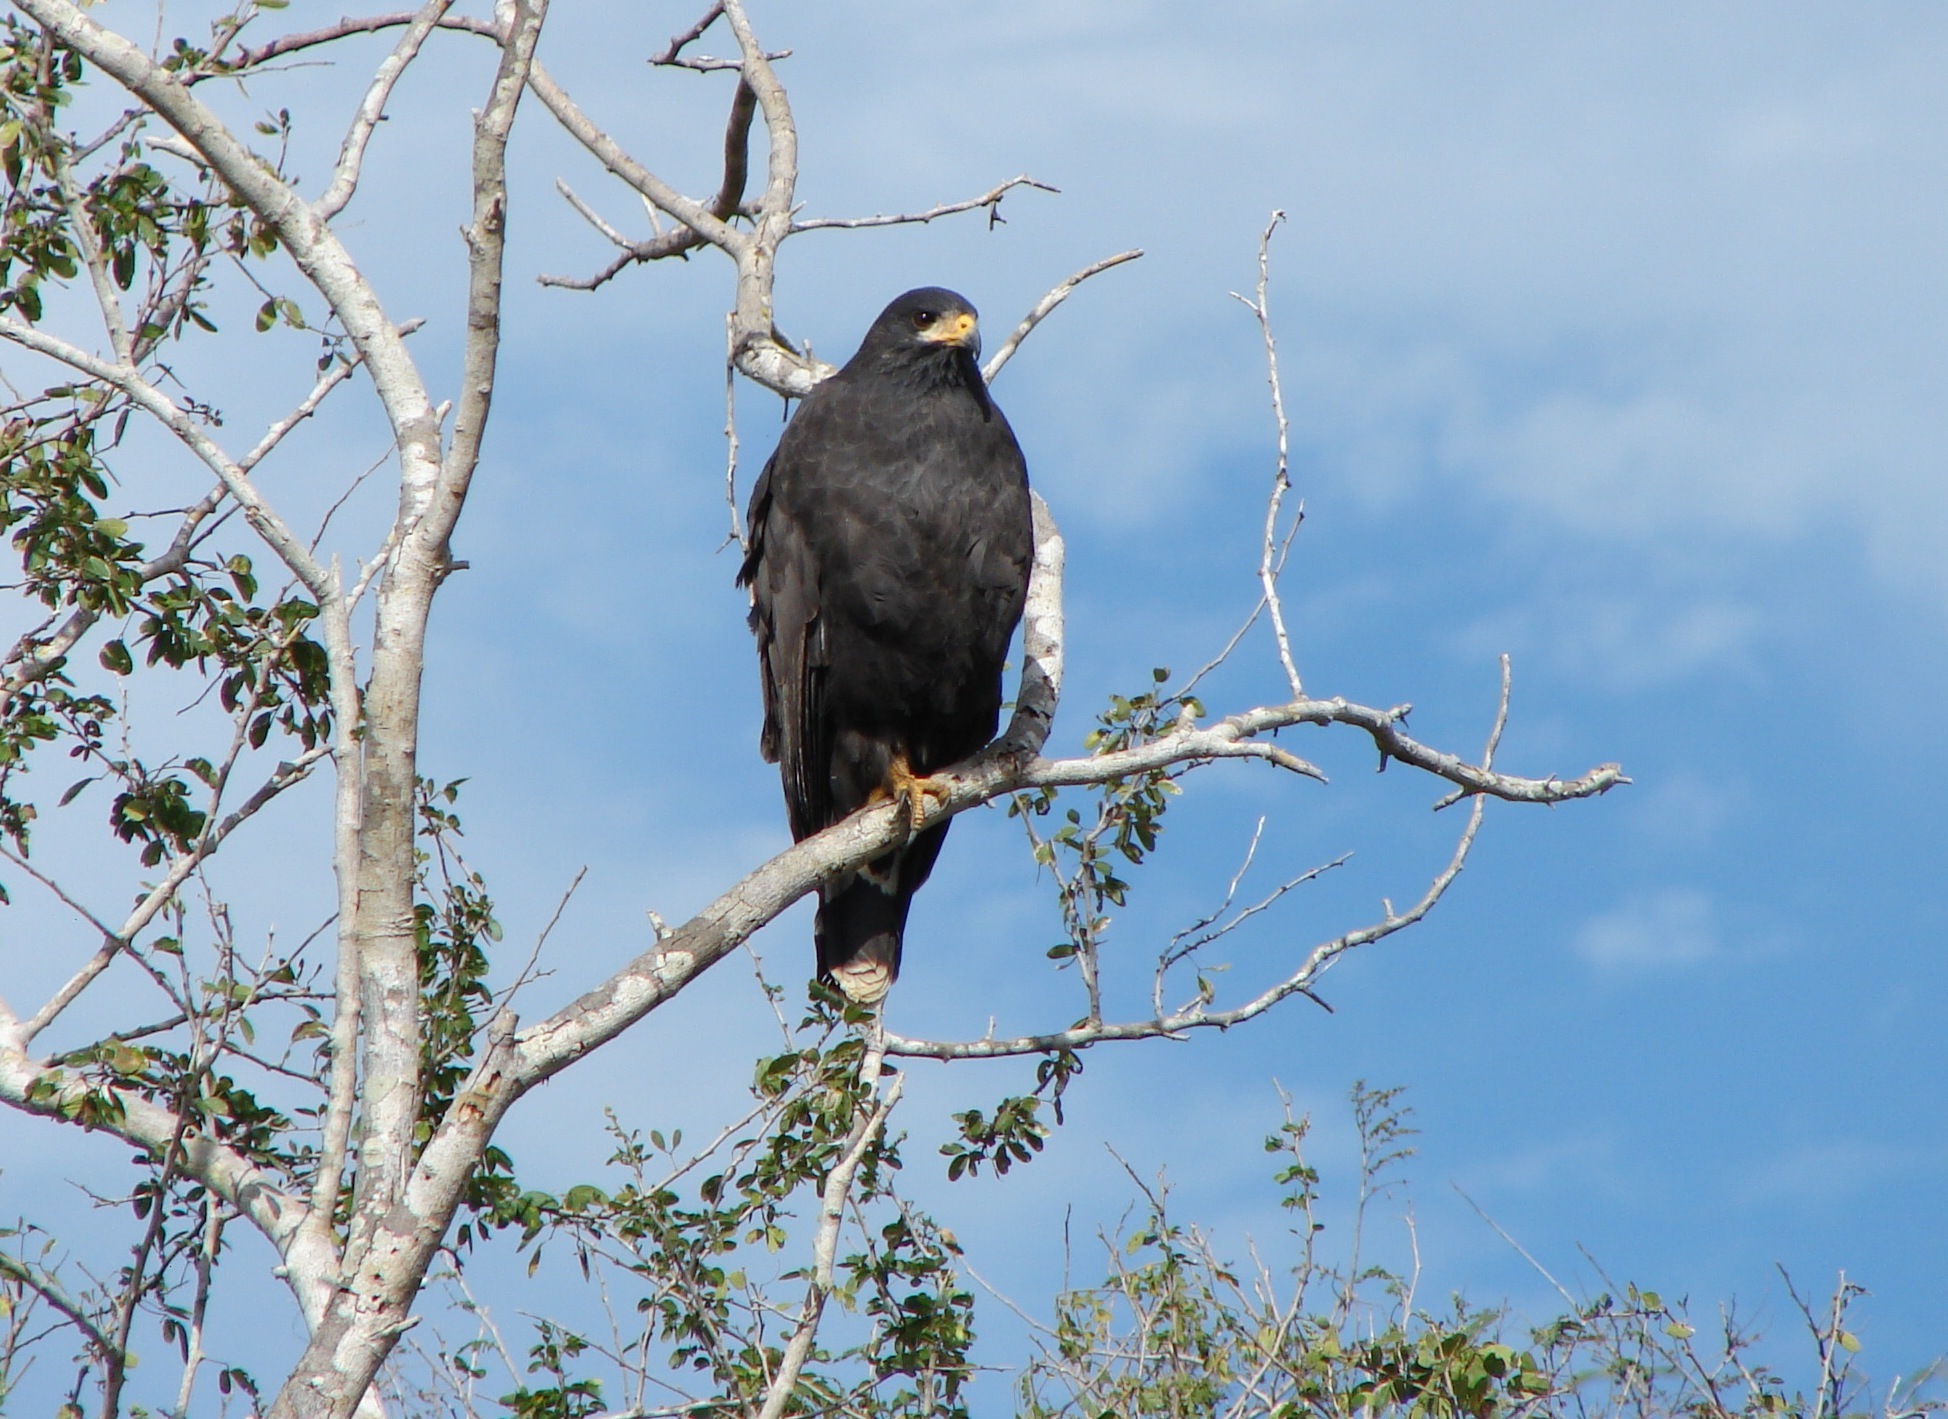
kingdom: Animalia
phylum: Chordata
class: Aves
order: Accipitriformes
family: Accipitridae
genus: Buteogallus
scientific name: Buteogallus
